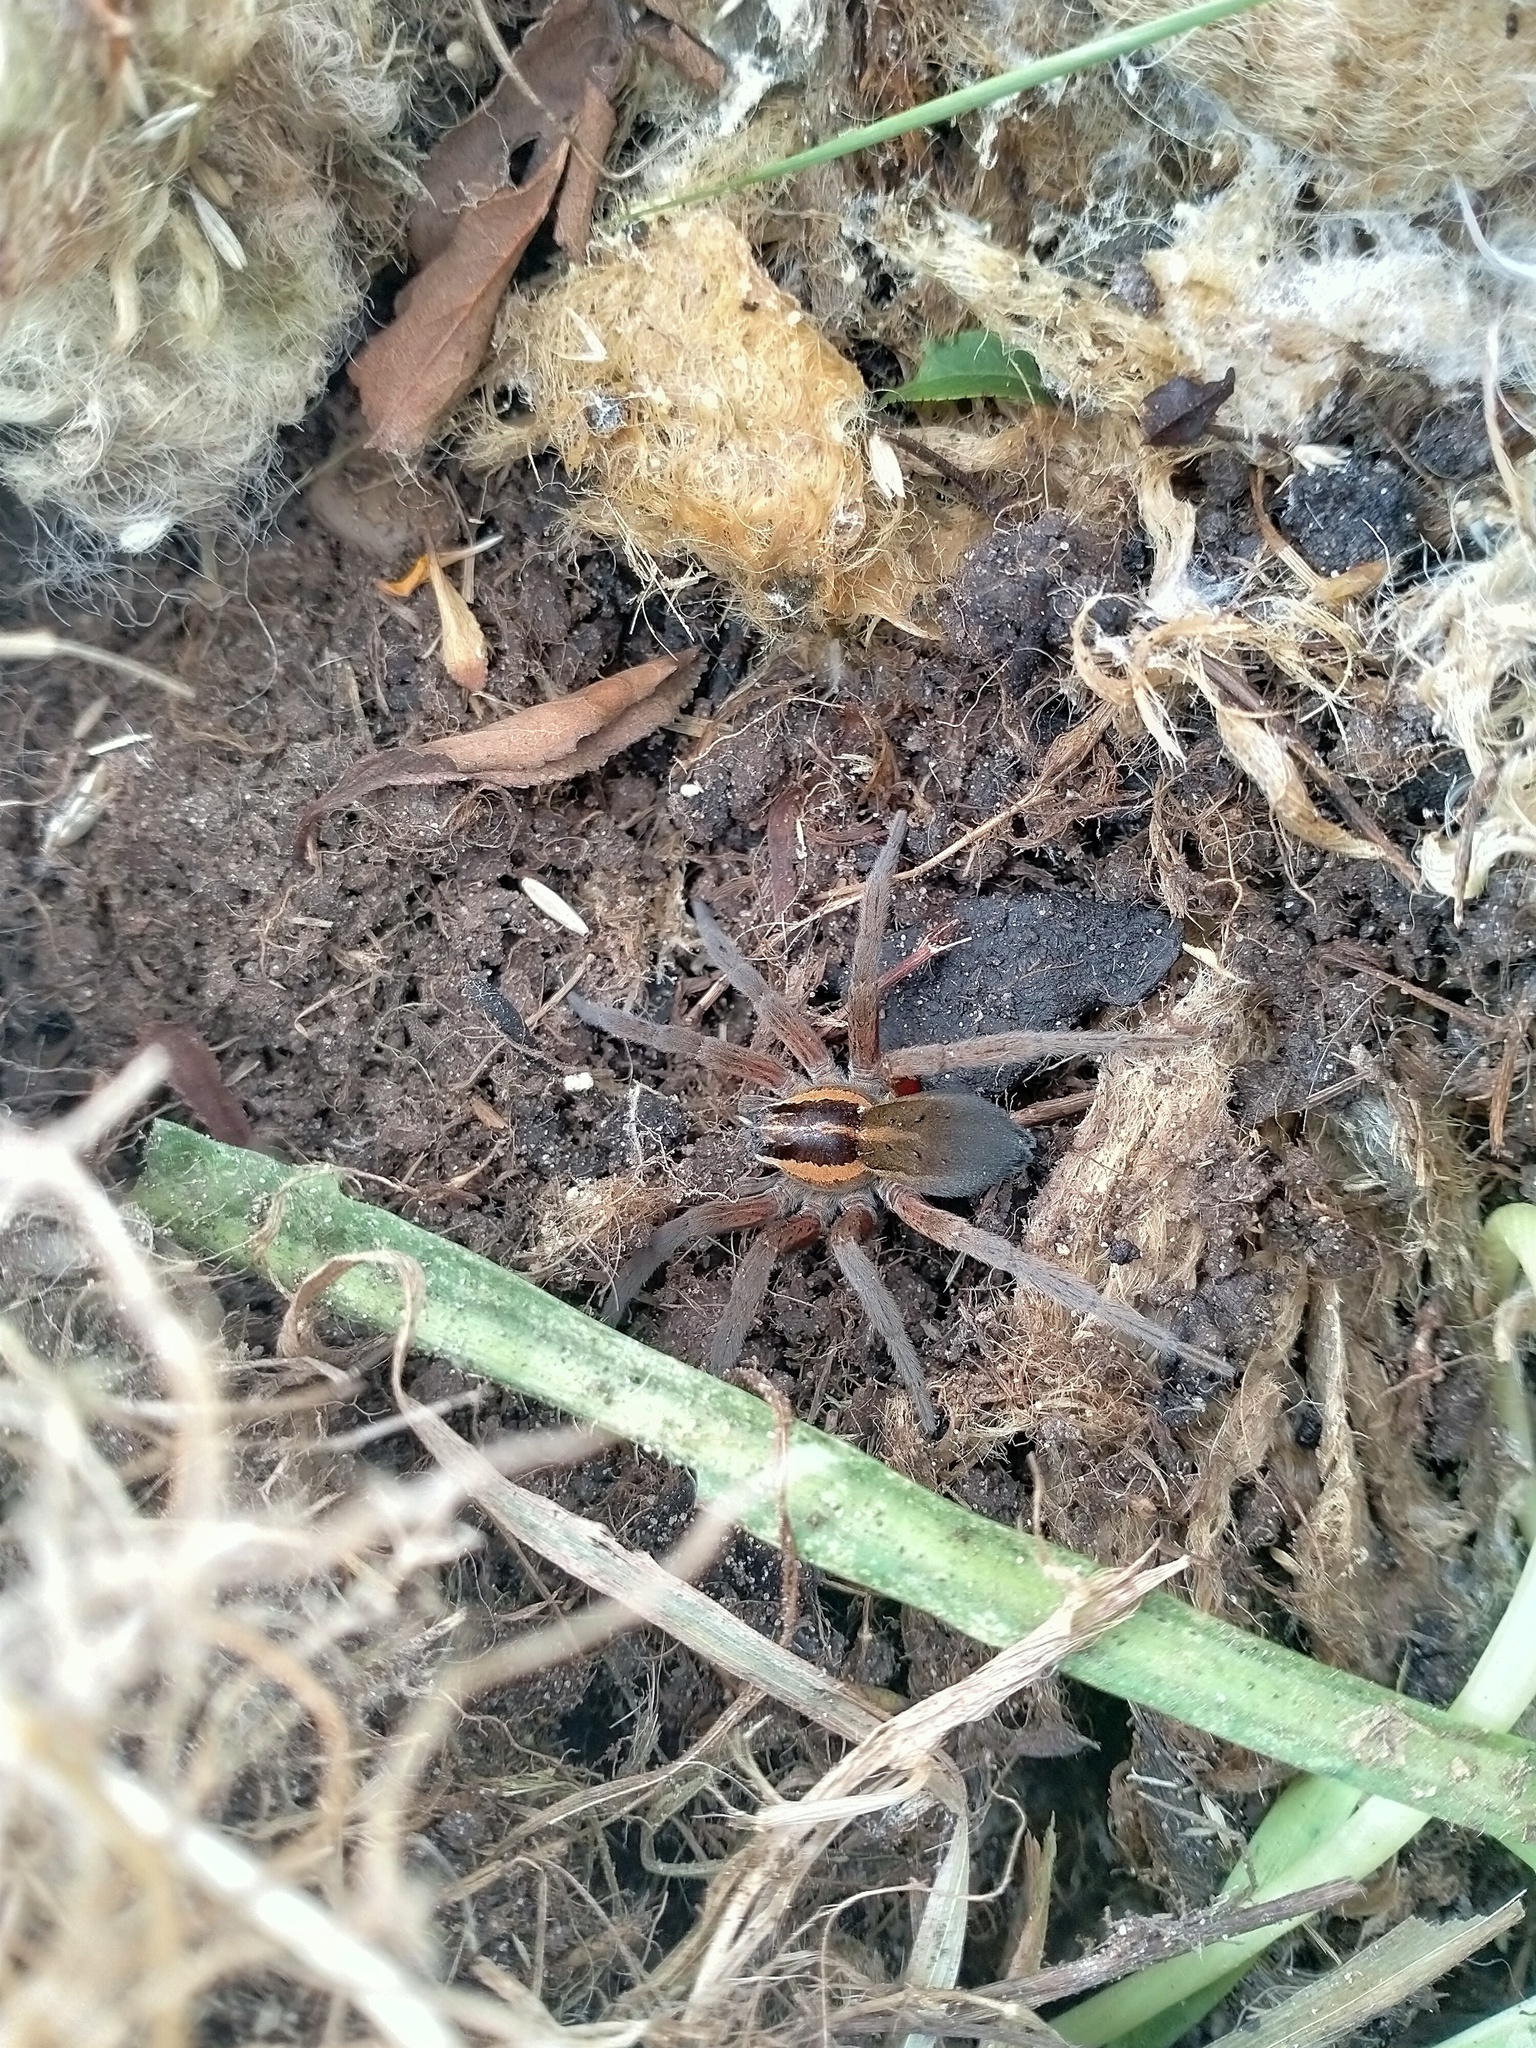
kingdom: Animalia
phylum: Arthropoda
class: Arachnida
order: Araneae
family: Pisauridae
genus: Dolomedes
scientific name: Dolomedes minor
